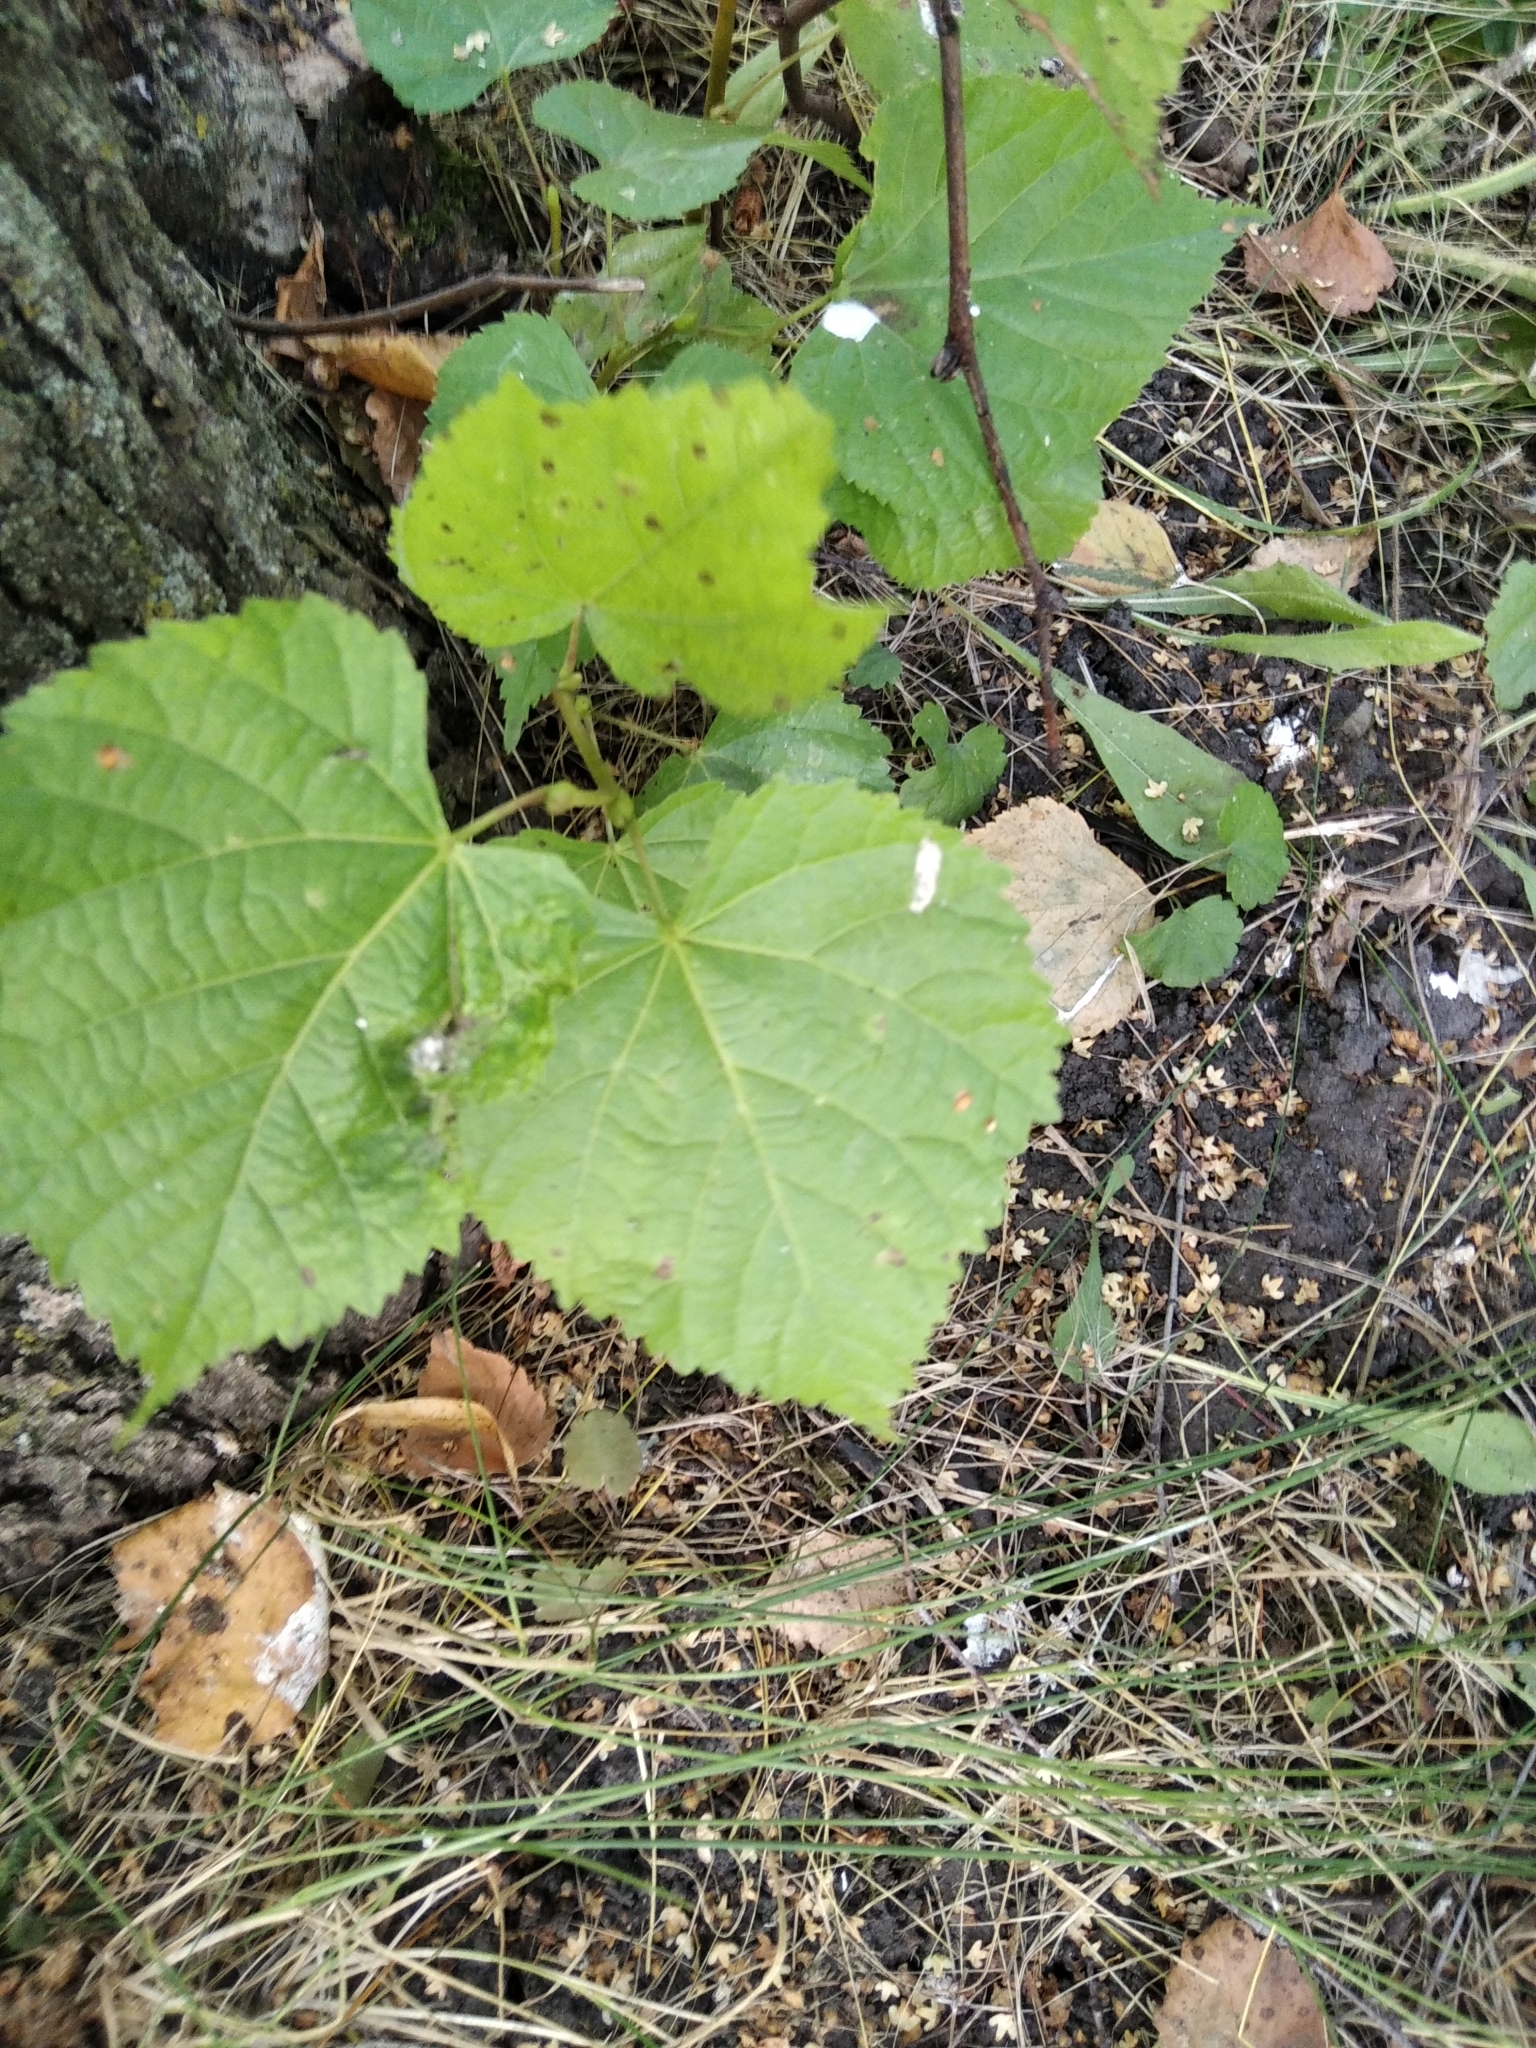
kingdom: Plantae
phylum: Tracheophyta
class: Magnoliopsida
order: Malvales
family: Malvaceae
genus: Tilia
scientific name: Tilia cordata
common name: Small-leaved lime
